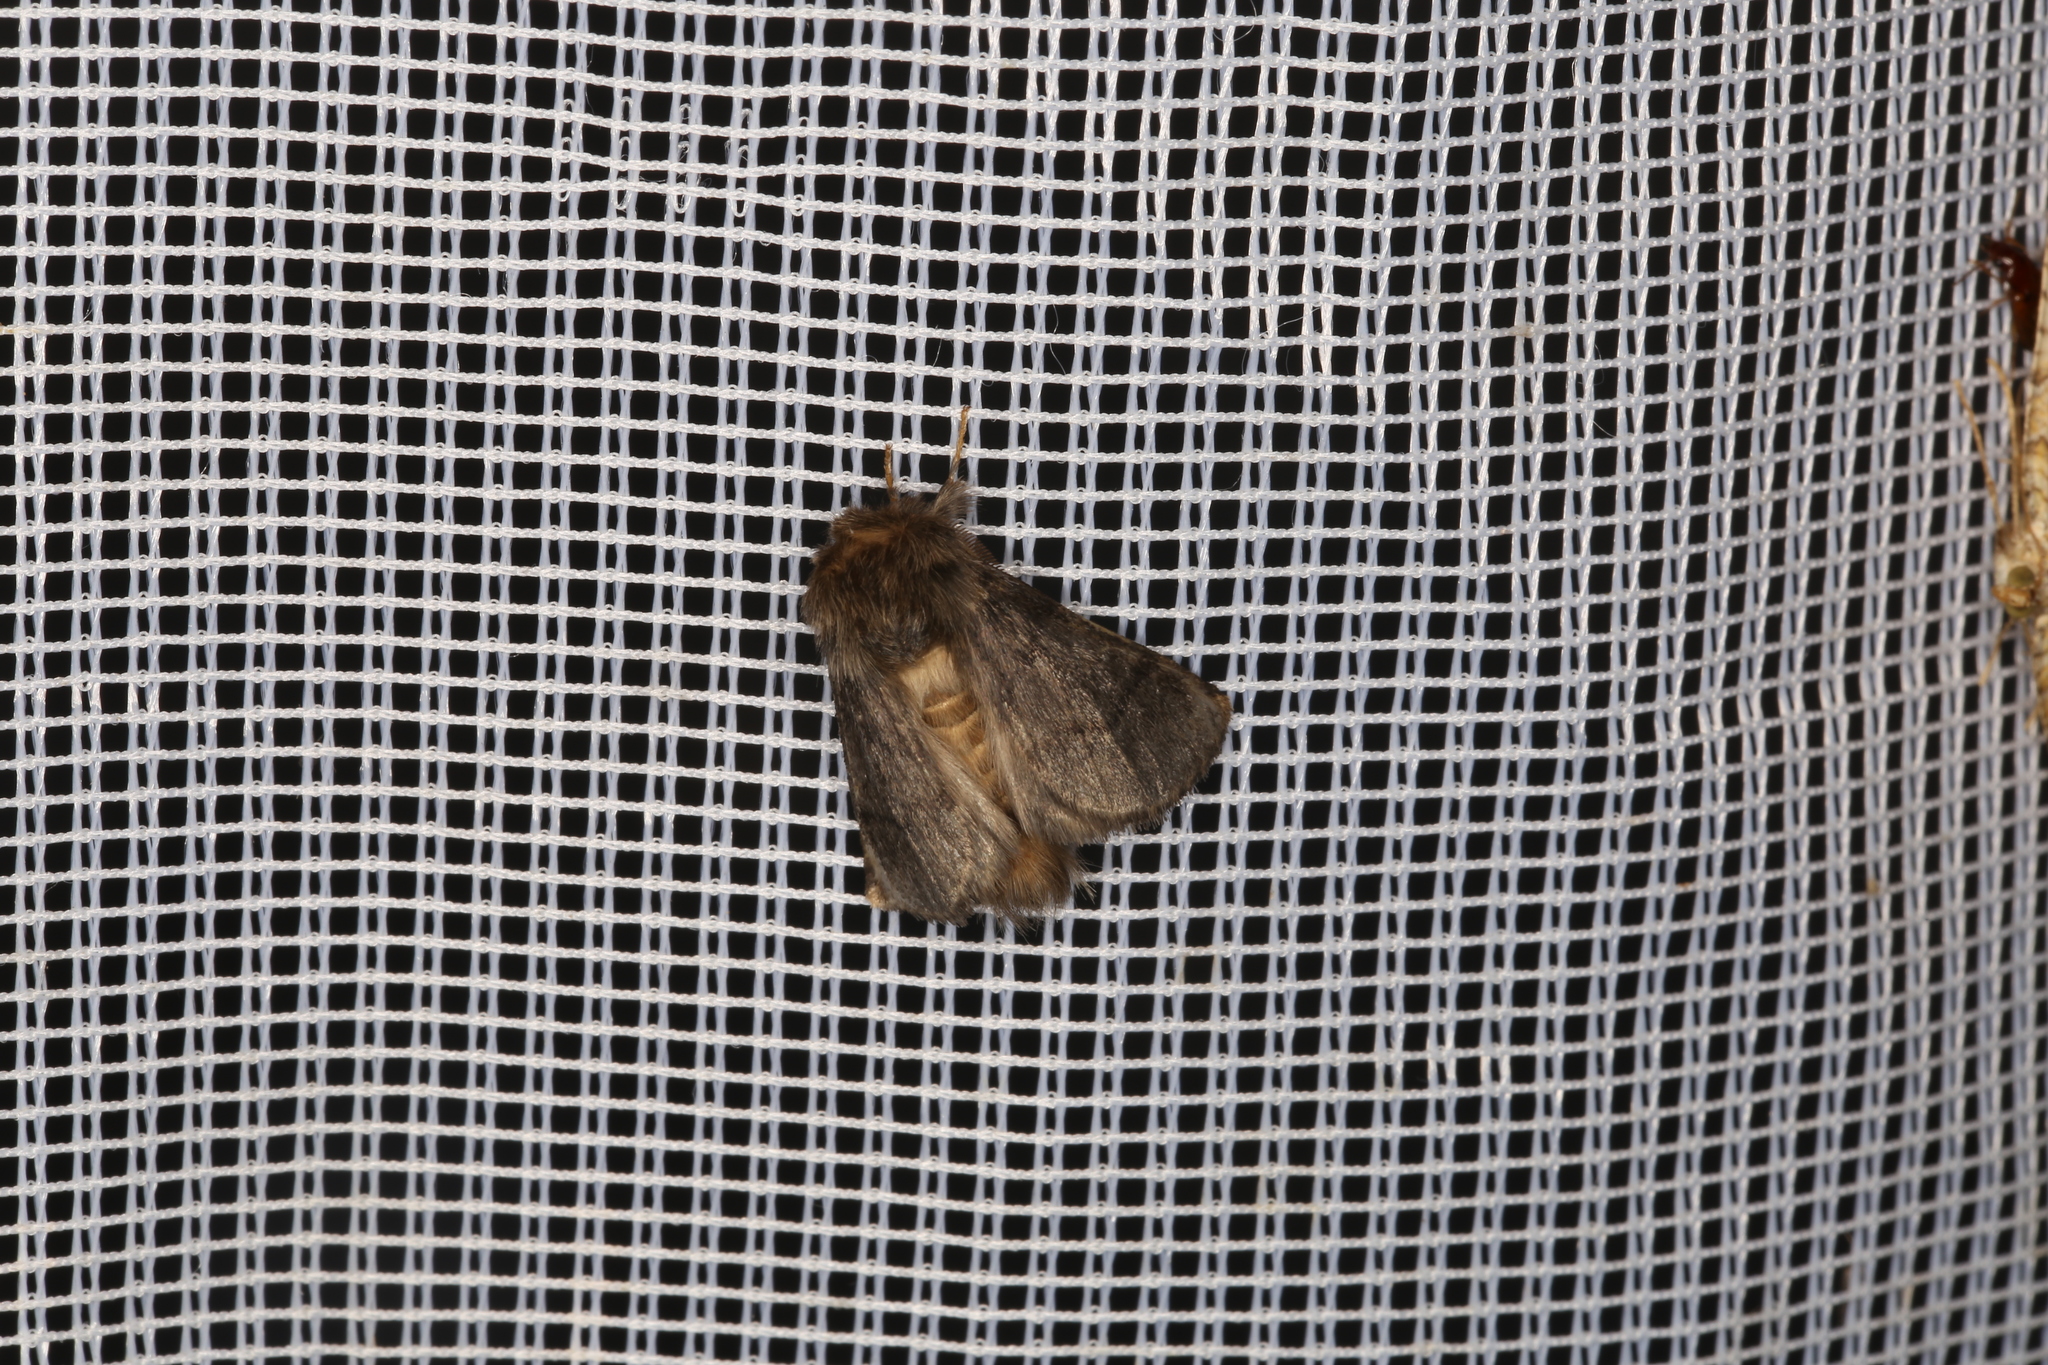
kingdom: Animalia
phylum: Arthropoda
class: Insecta
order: Lepidoptera
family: Notodontidae
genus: Thaumetopoea
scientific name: Thaumetopoea processionea
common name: Oak processionea
